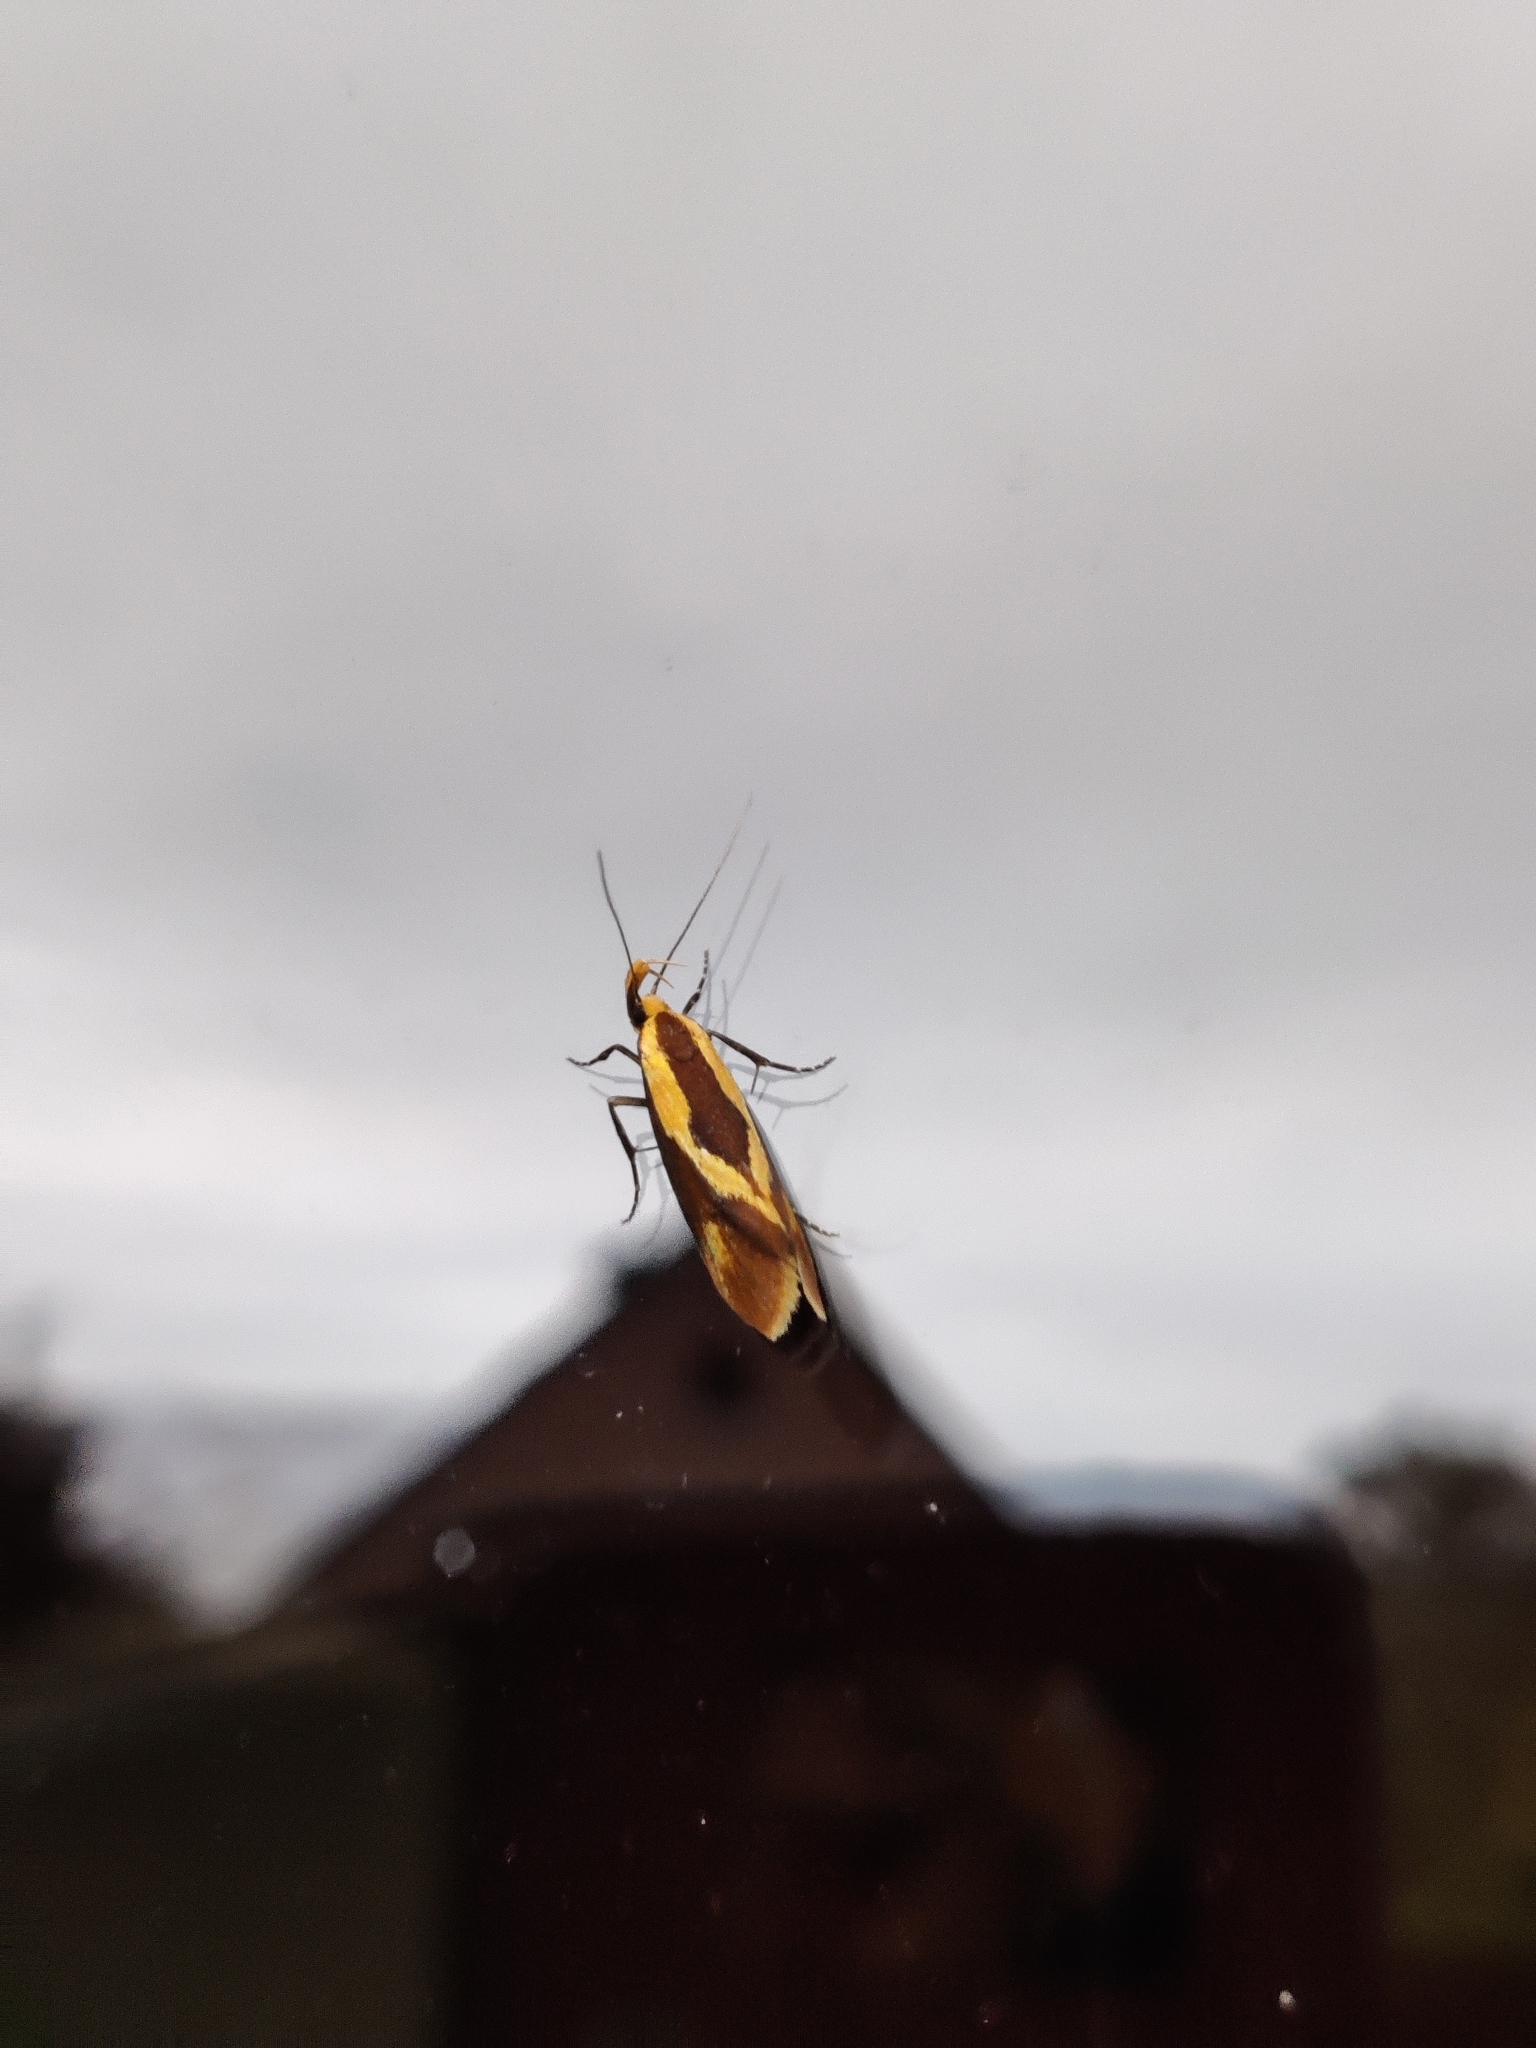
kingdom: Animalia
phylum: Arthropoda
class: Insecta
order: Lepidoptera
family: Oecophoridae
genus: Harpella
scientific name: Harpella forficella
